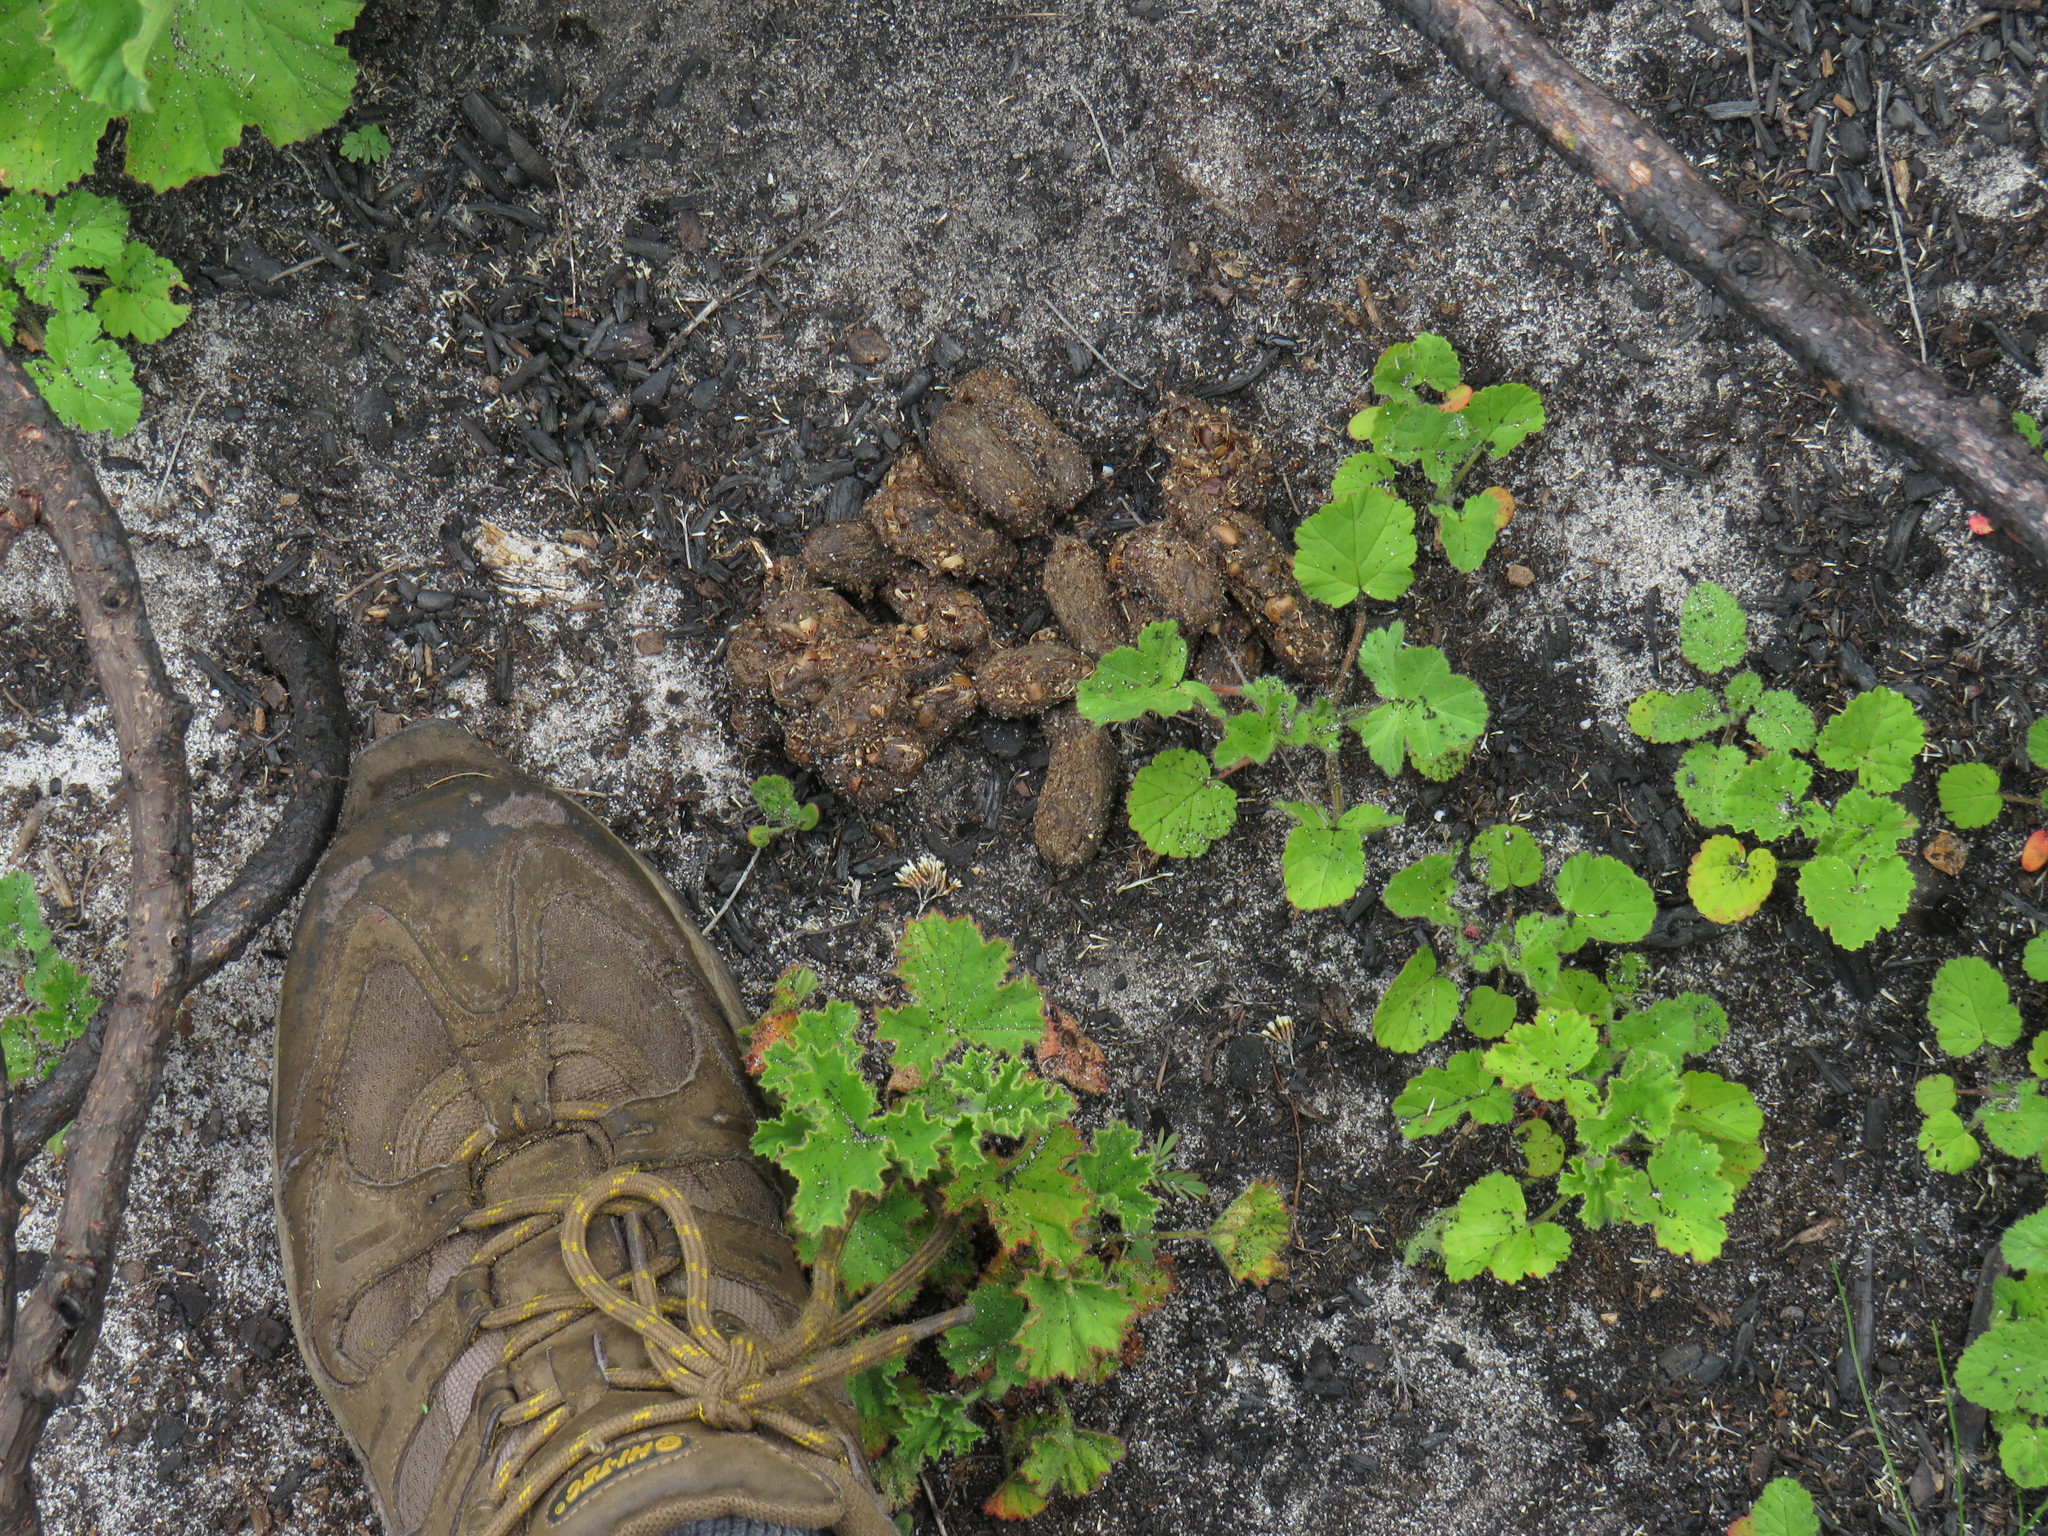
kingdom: Animalia
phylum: Chordata
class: Mammalia
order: Rodentia
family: Hystricidae
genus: Hystrix
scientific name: Hystrix africaeaustralis
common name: Cape porcupine
